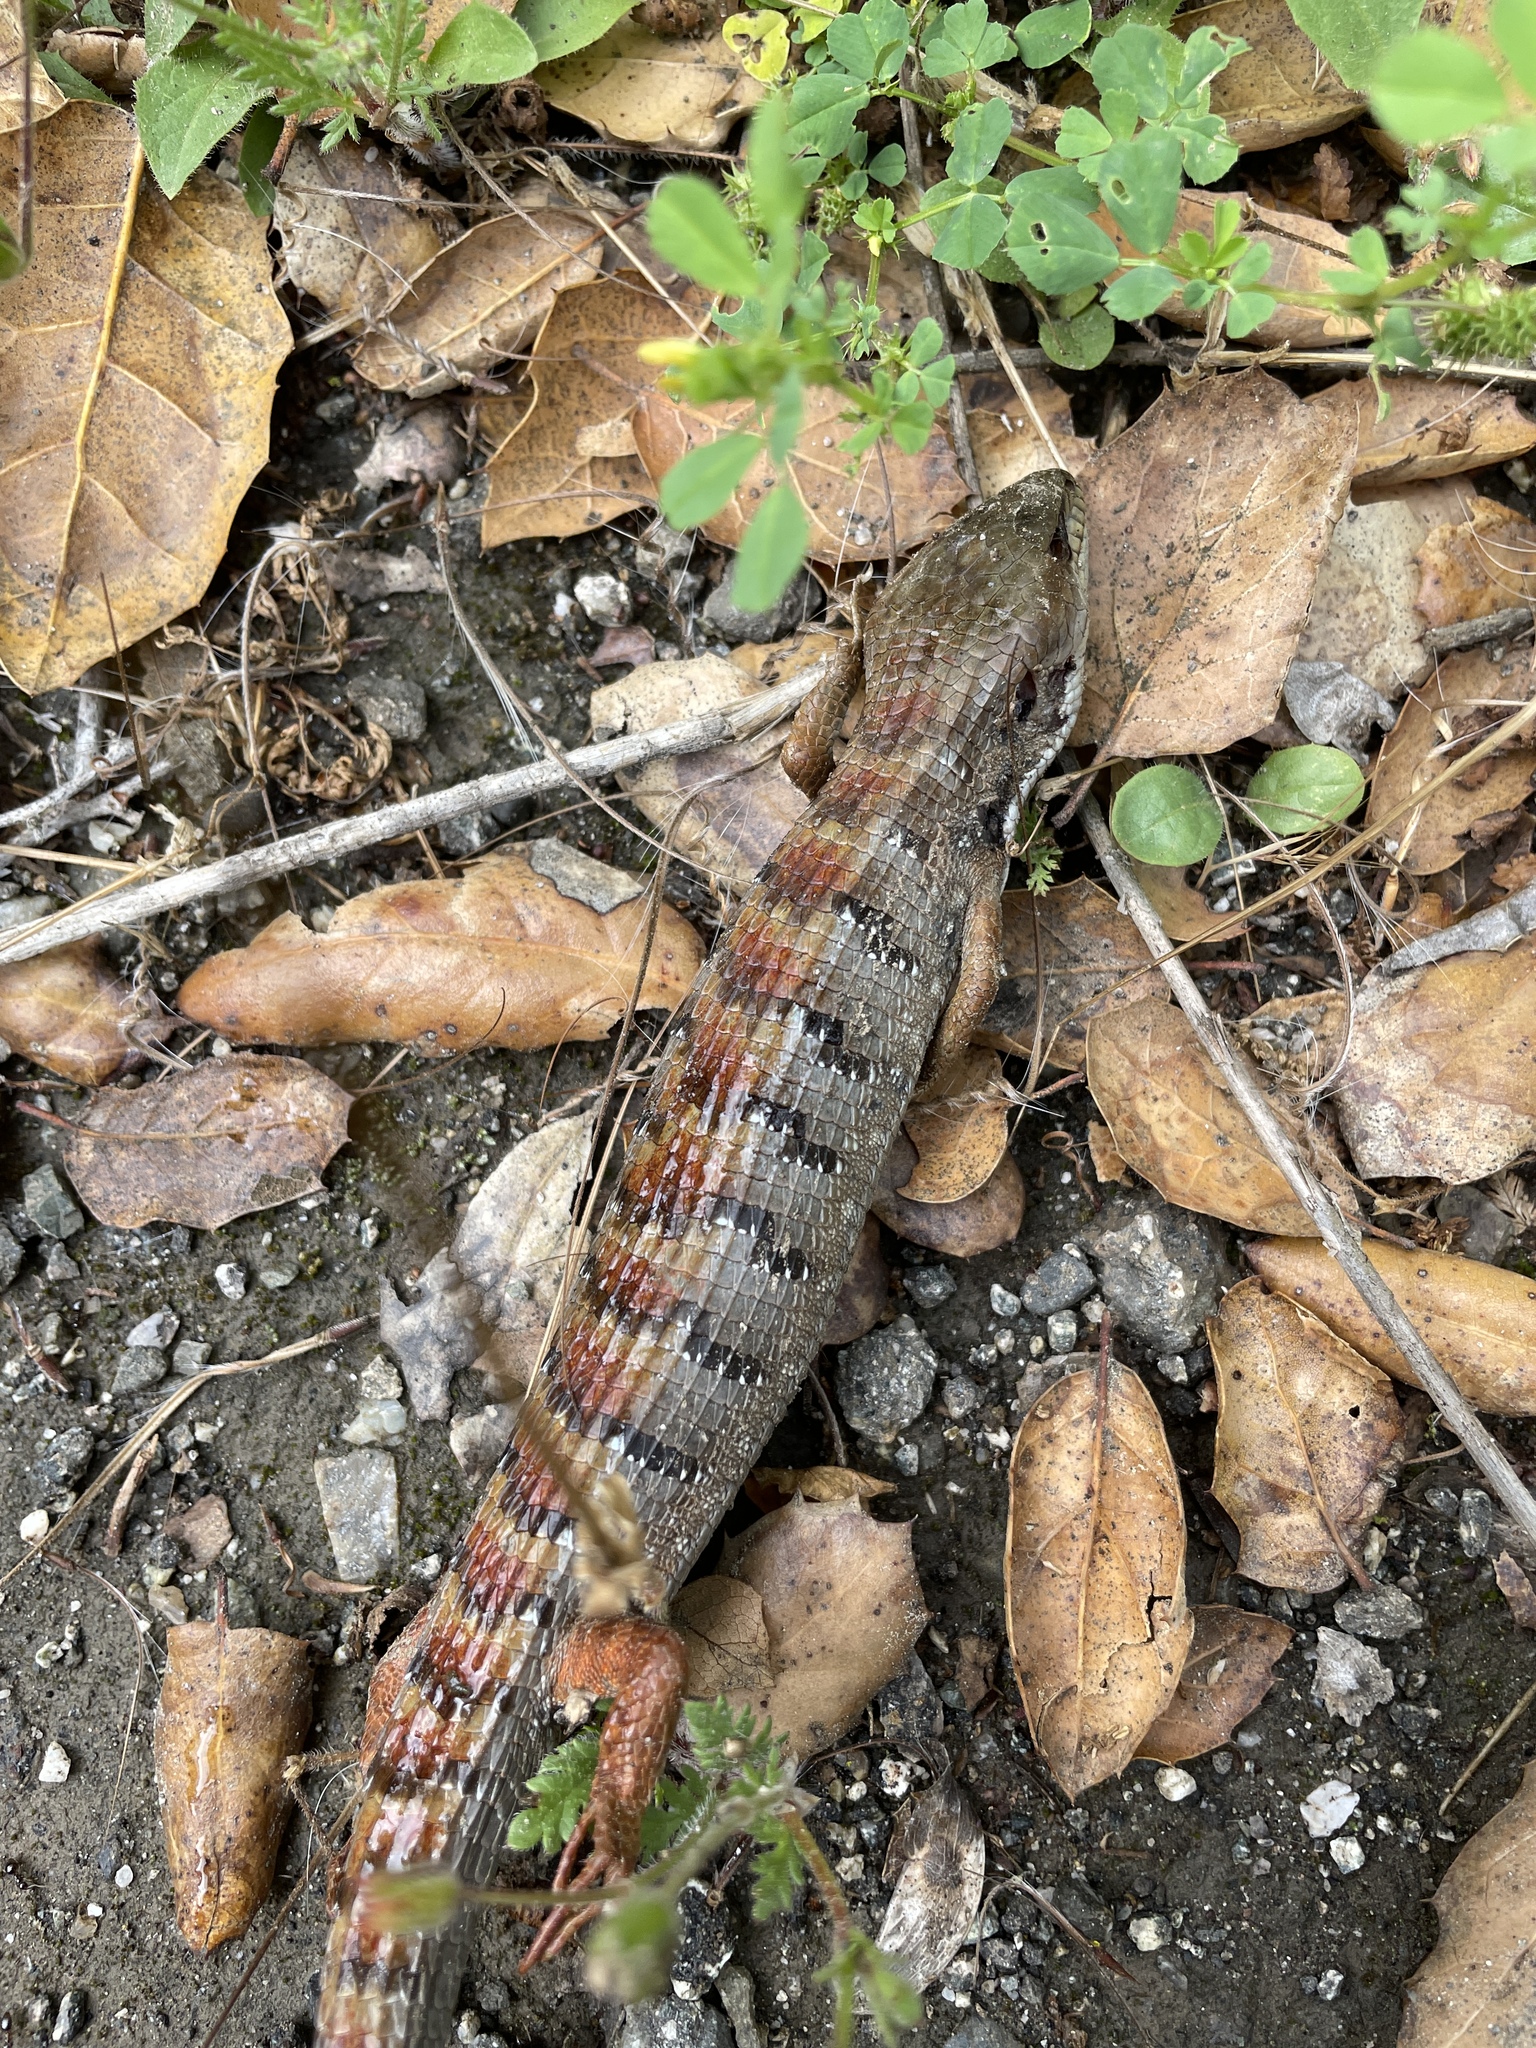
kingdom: Animalia
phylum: Chordata
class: Squamata
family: Anguidae
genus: Elgaria
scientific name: Elgaria multicarinata
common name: Southern alligator lizard
